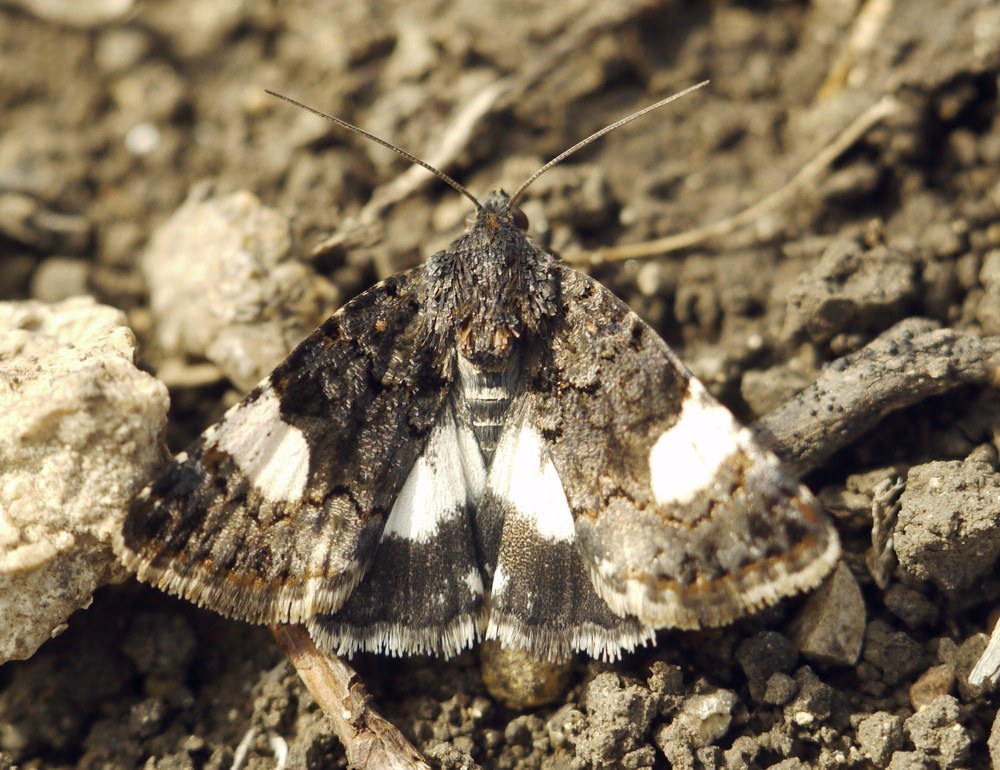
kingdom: Animalia
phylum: Arthropoda
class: Insecta
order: Lepidoptera
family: Erebidae
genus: Tyta
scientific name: Tyta luctuosa
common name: Four-spotted
